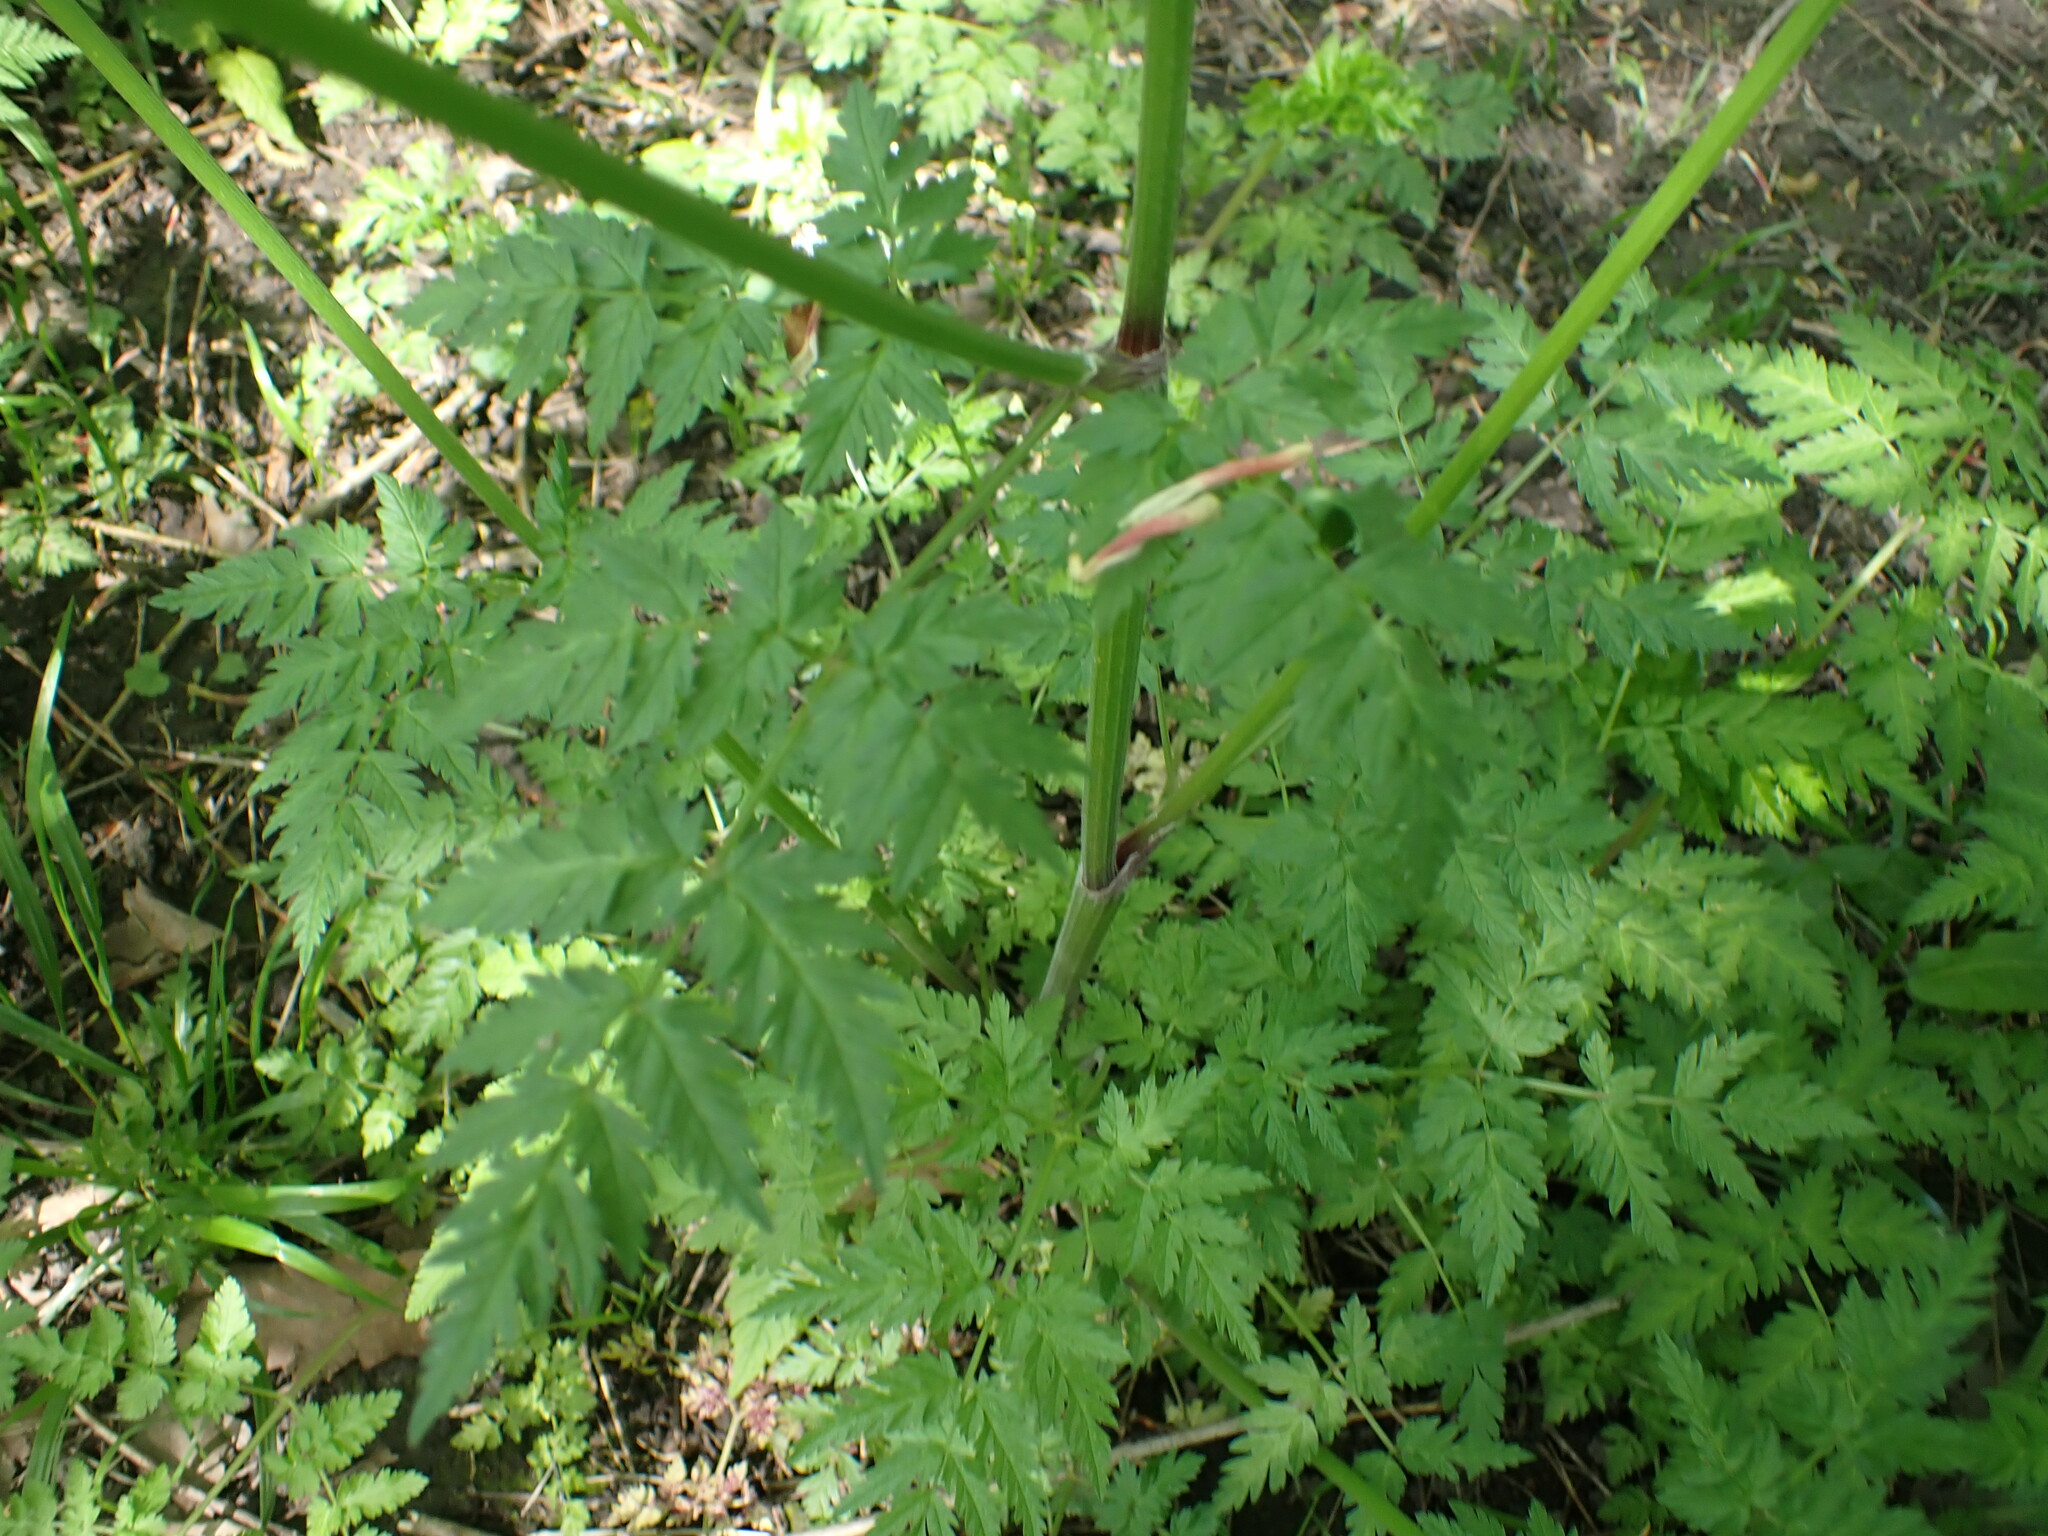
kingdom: Plantae
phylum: Tracheophyta
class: Magnoliopsida
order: Apiales
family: Apiaceae
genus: Anthriscus
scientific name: Anthriscus sylvestris
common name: Cow parsley
